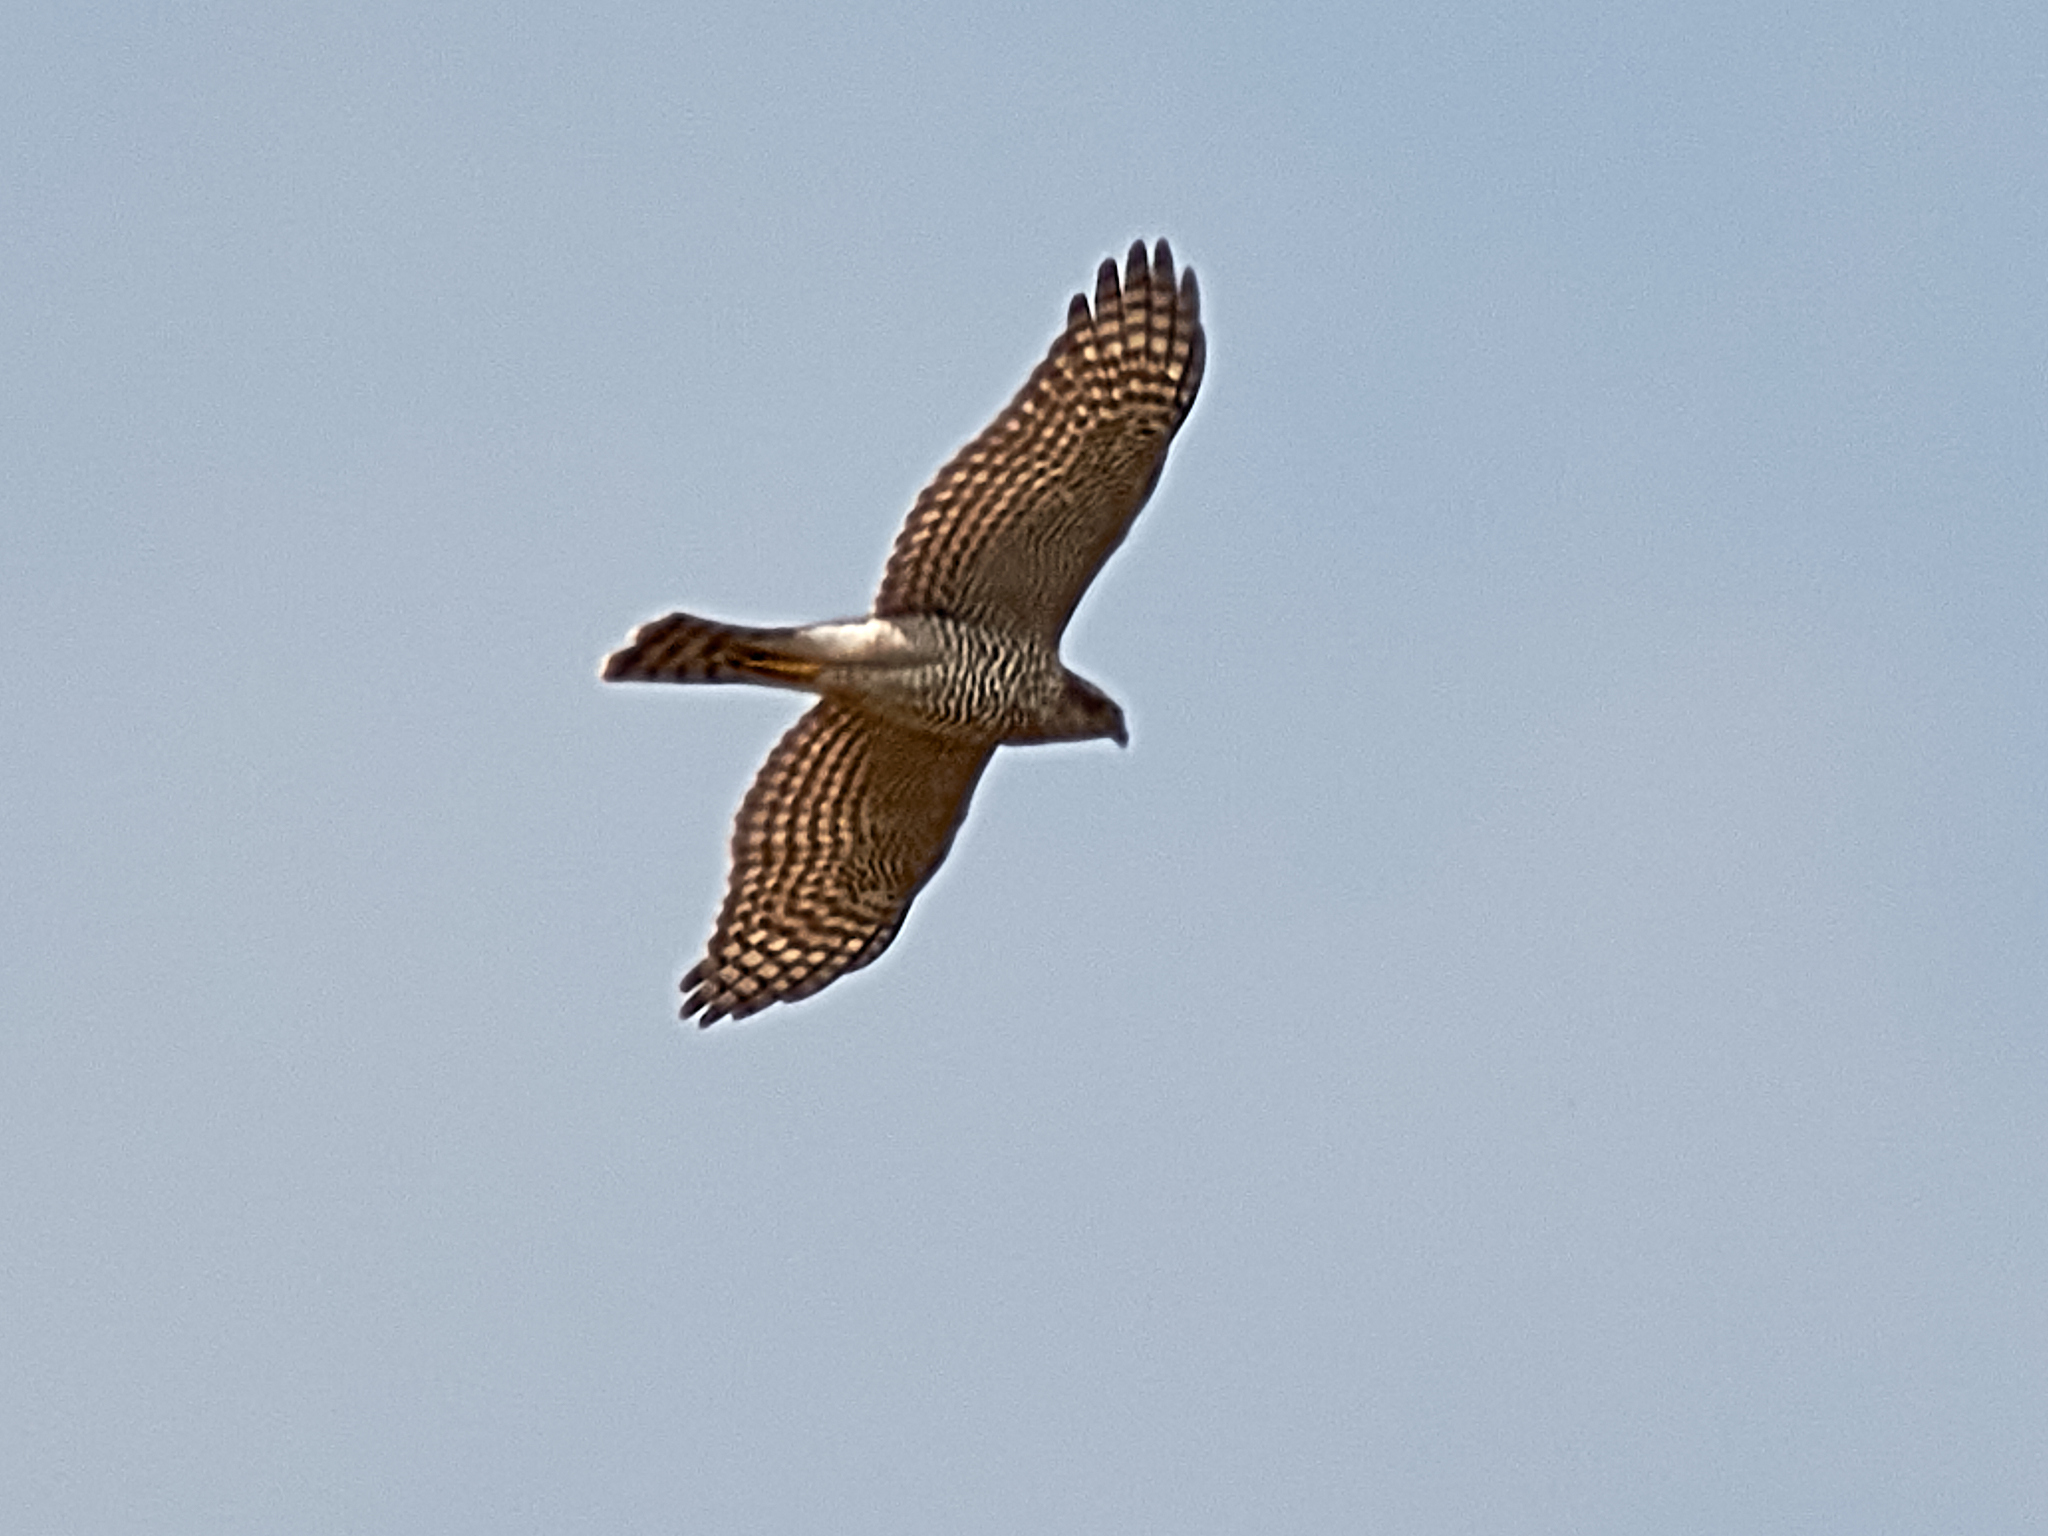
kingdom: Animalia
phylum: Chordata
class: Aves
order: Accipitriformes
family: Accipitridae
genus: Accipiter
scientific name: Accipiter nisus
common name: Eurasian sparrowhawk
